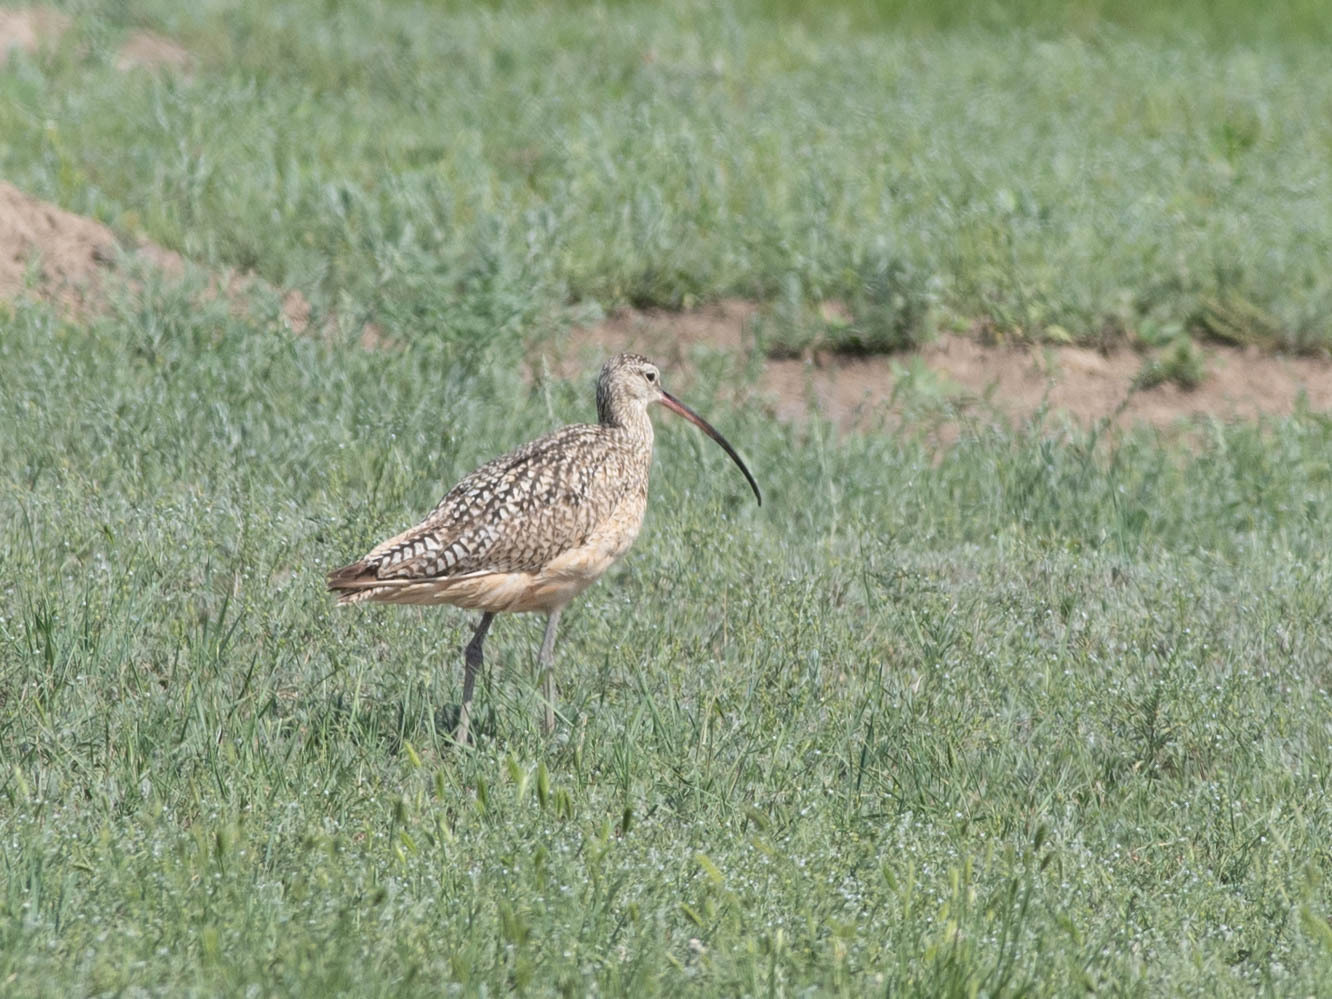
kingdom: Animalia
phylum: Chordata
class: Aves
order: Charadriiformes
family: Scolopacidae
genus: Numenius
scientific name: Numenius americanus
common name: Long-billed curlew
